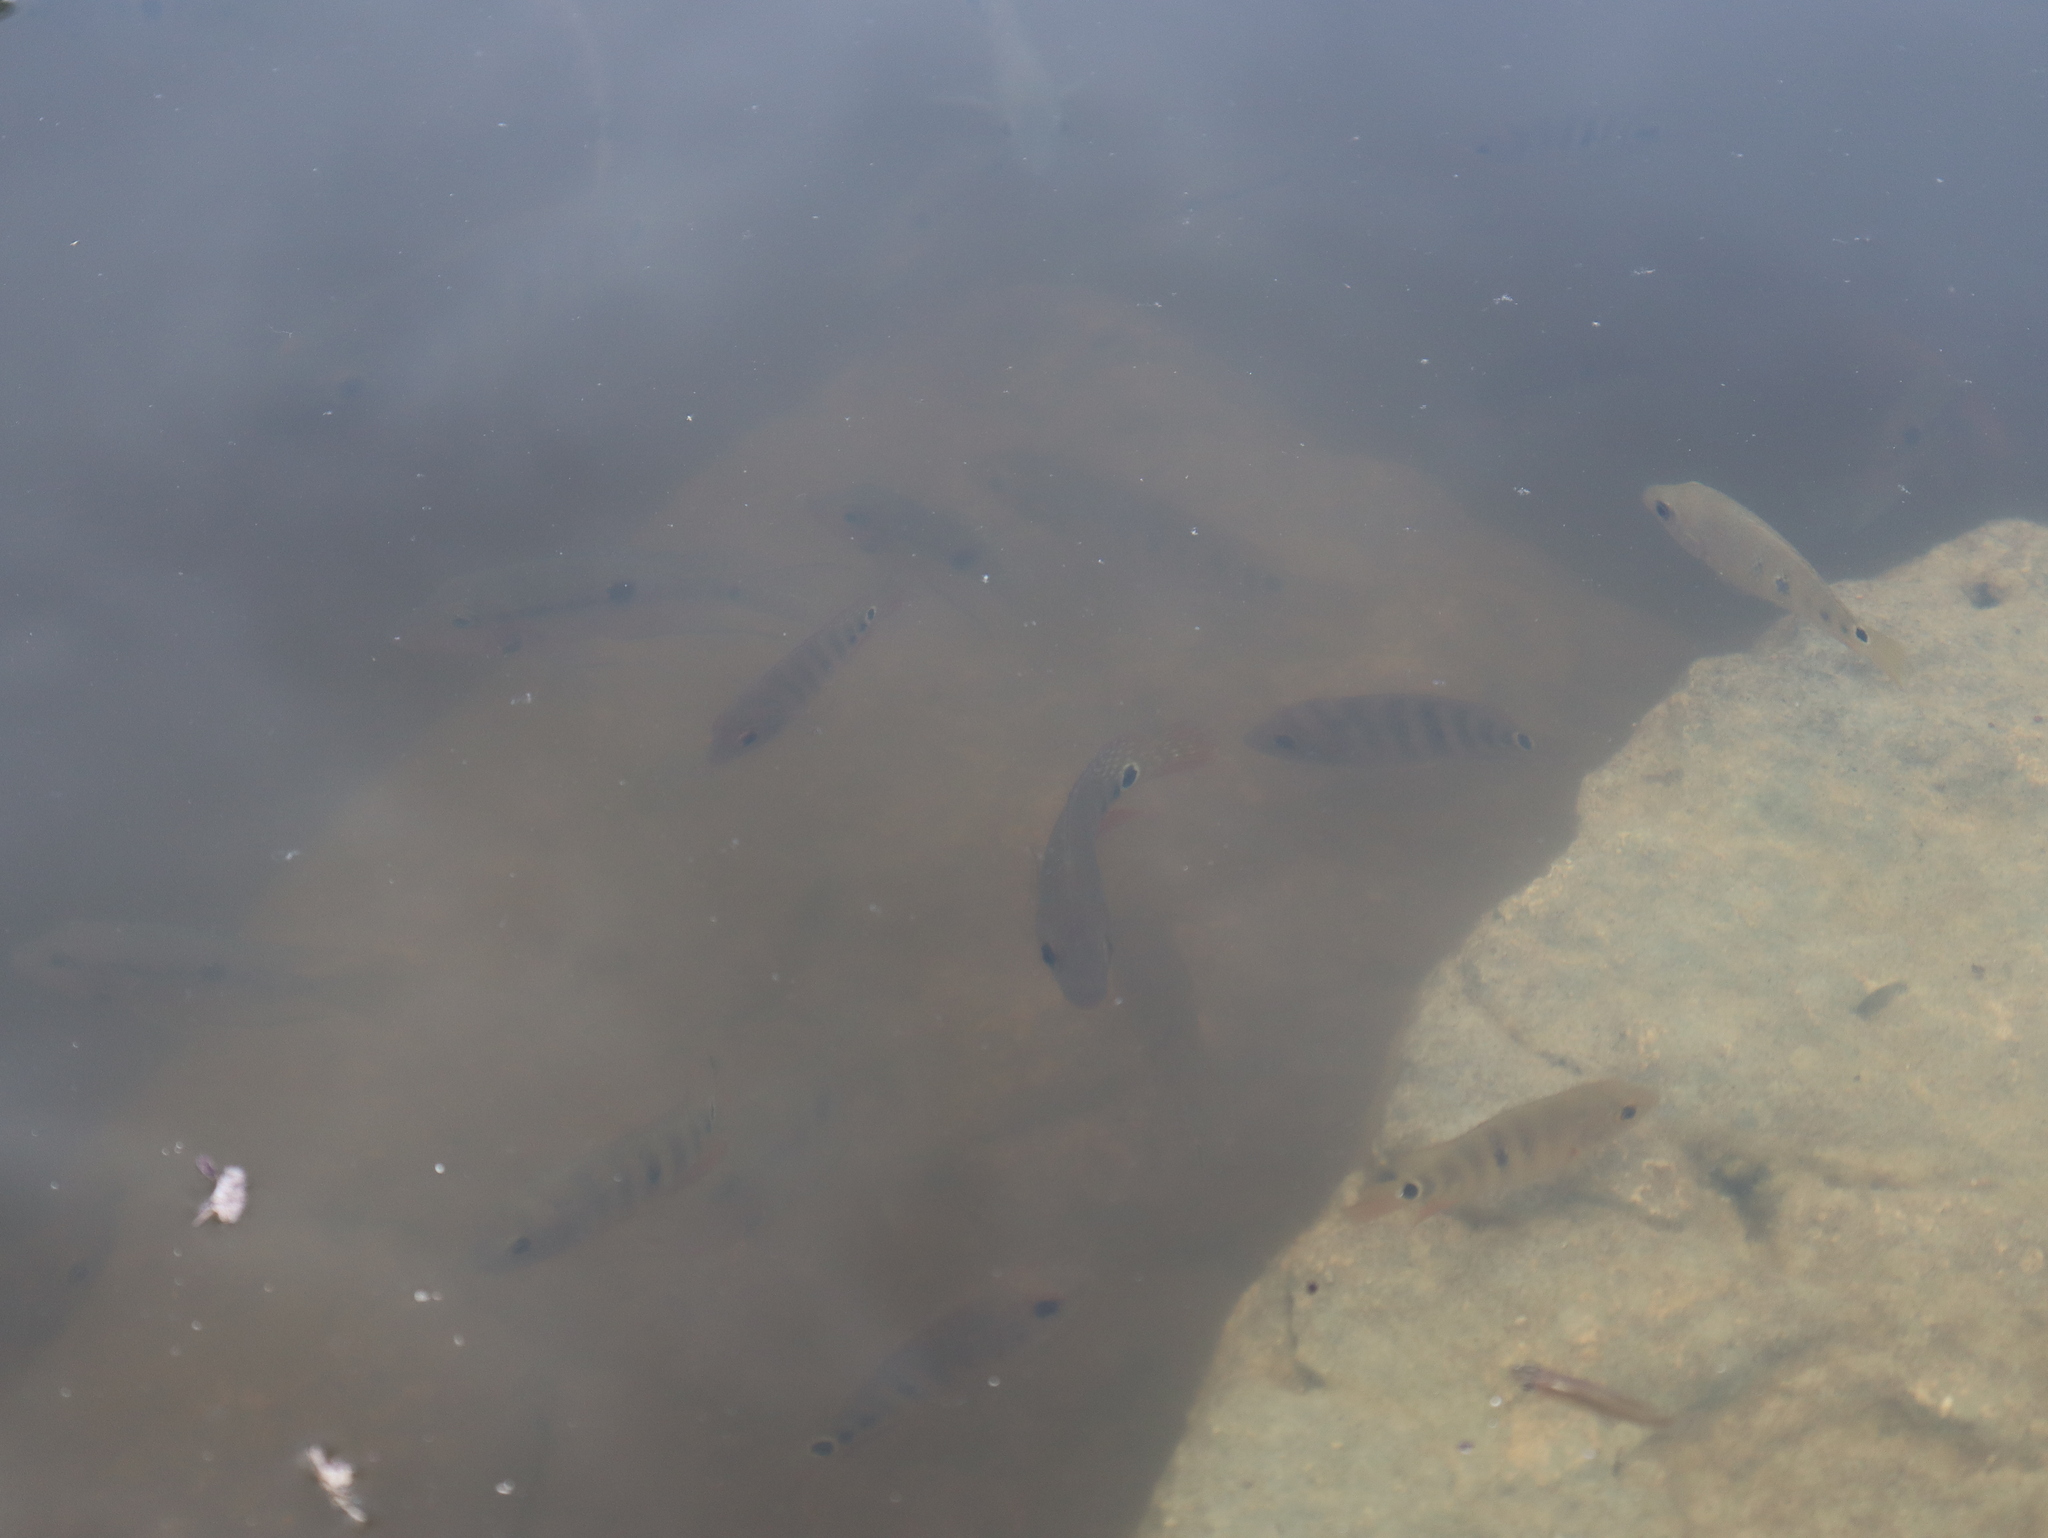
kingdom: Animalia
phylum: Chordata
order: Perciformes
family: Cichlidae
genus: Mayaheros
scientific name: Mayaheros urophthalmus
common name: Mayan cichlid
